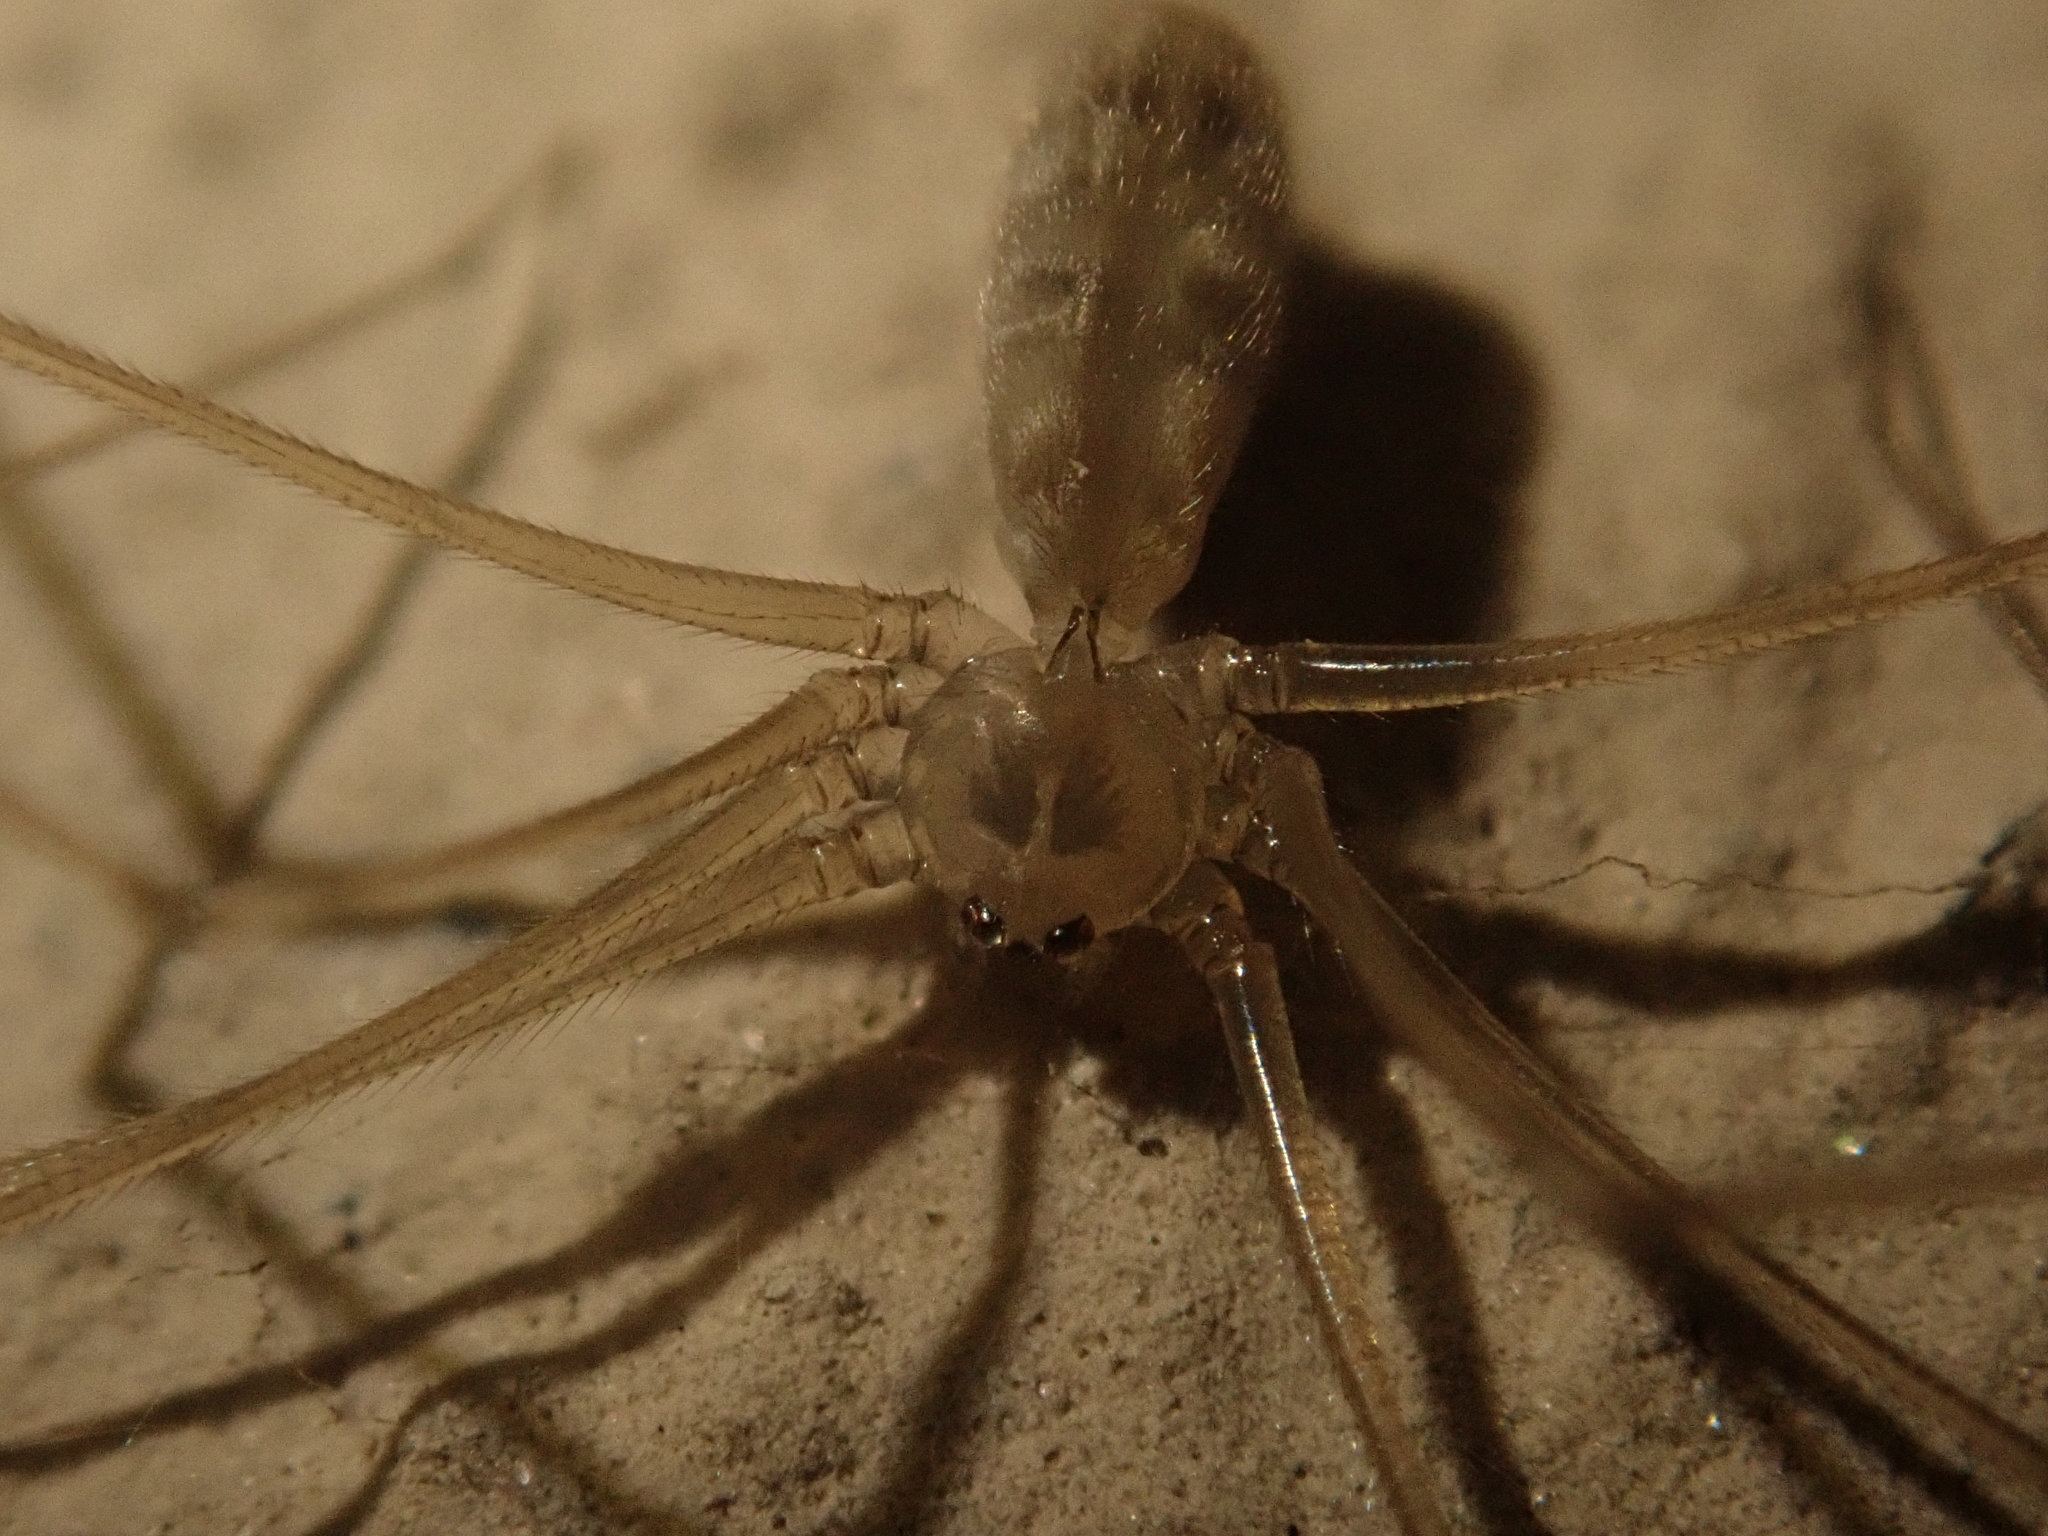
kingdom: Animalia
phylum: Arthropoda
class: Arachnida
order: Araneae
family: Pholcidae
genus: Pholcus
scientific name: Pholcus phalangioides
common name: Longbodied cellar spider
